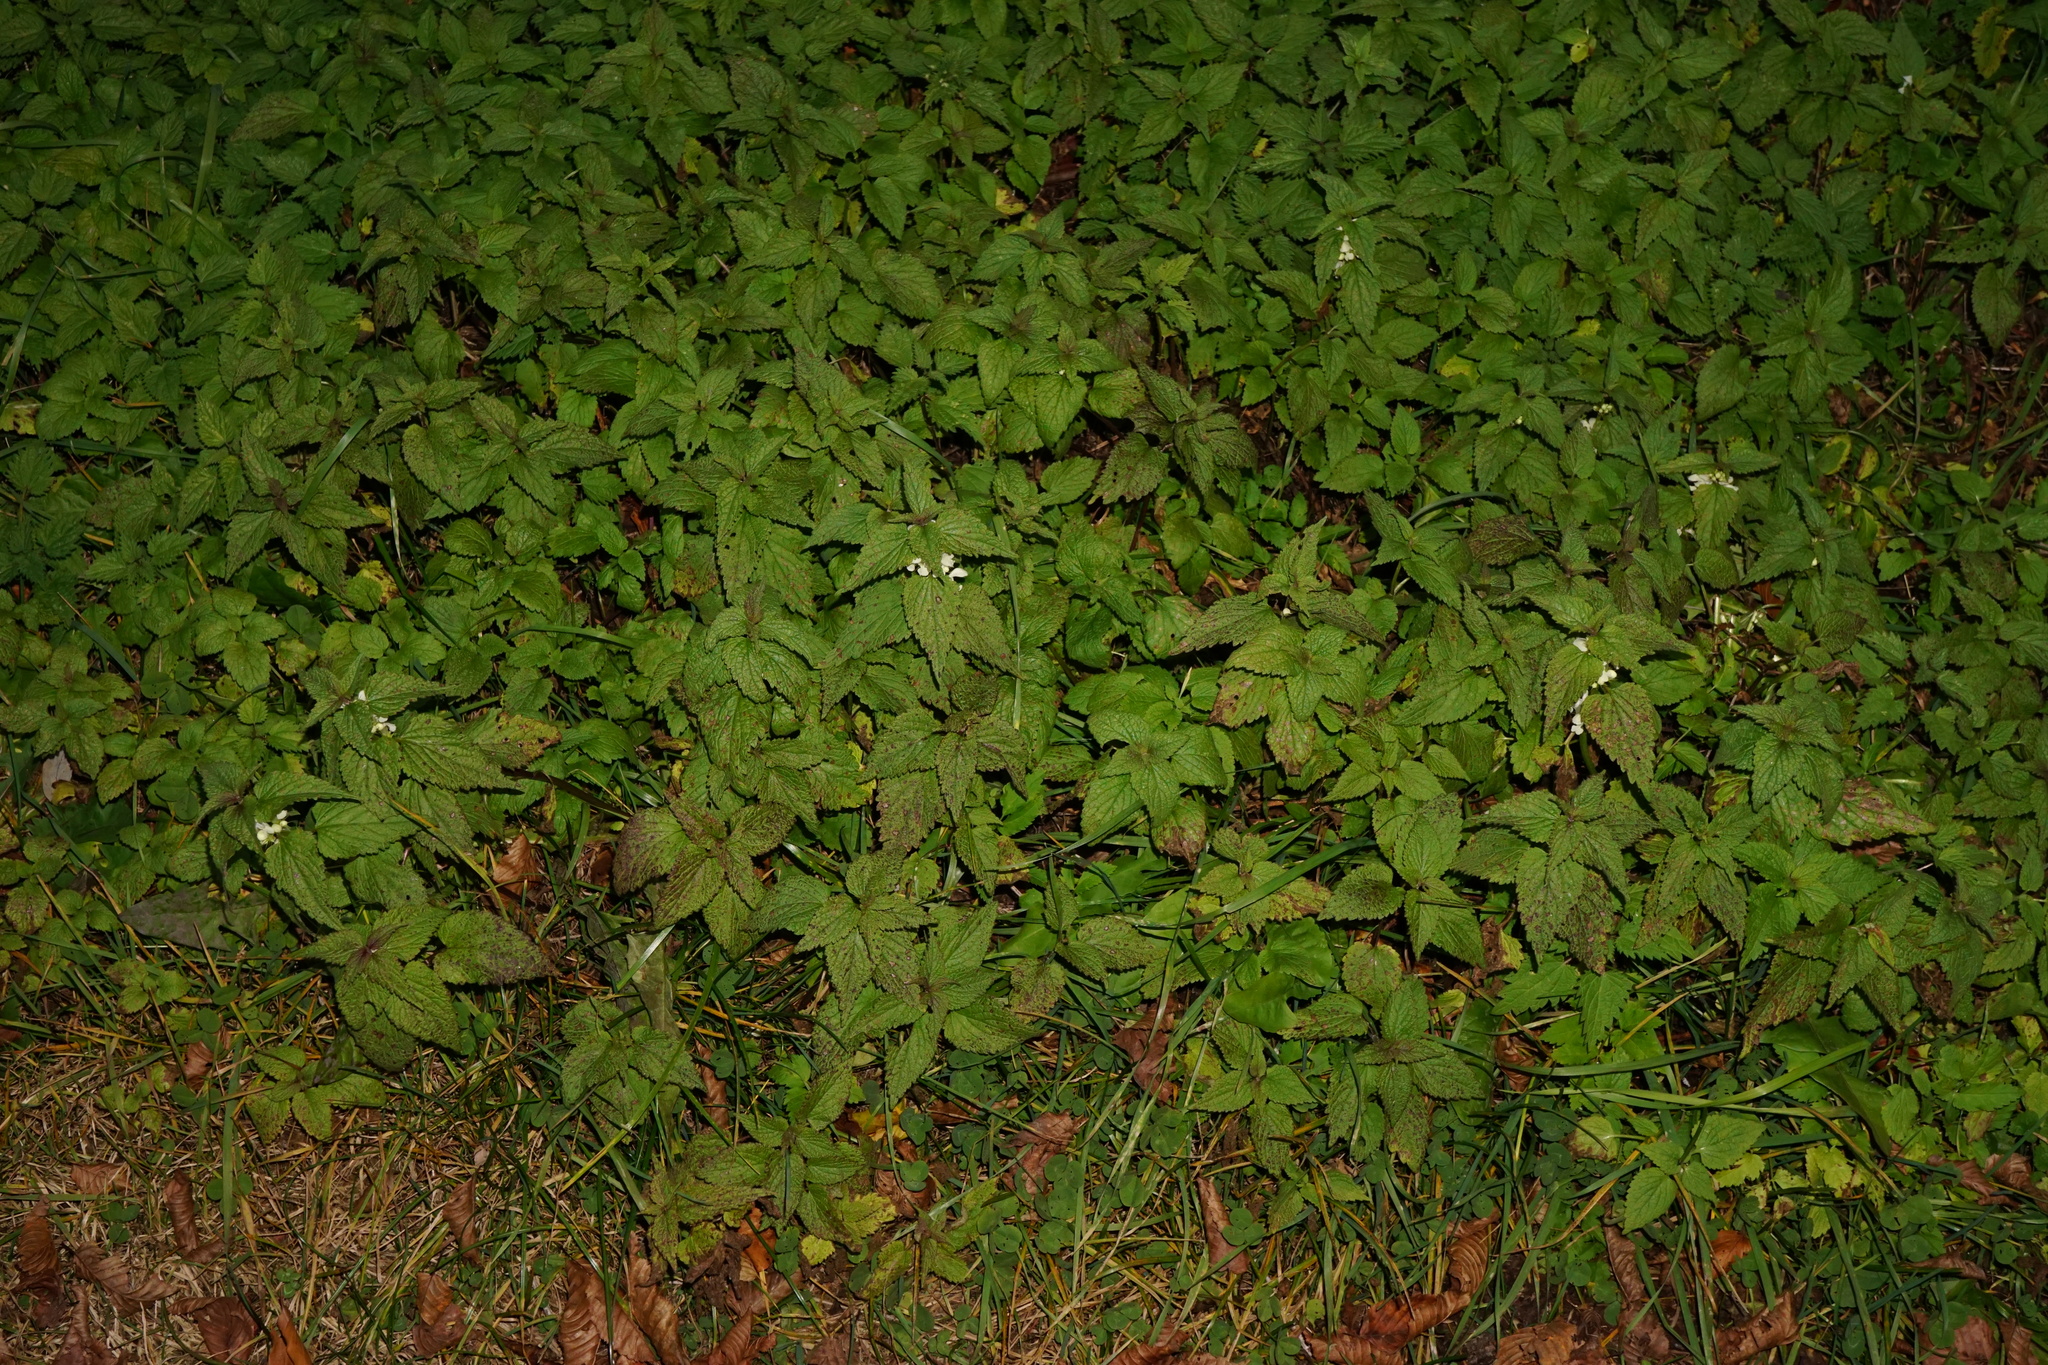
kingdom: Plantae
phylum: Tracheophyta
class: Magnoliopsida
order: Lamiales
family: Lamiaceae
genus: Lamium
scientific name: Lamium album
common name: White dead-nettle
